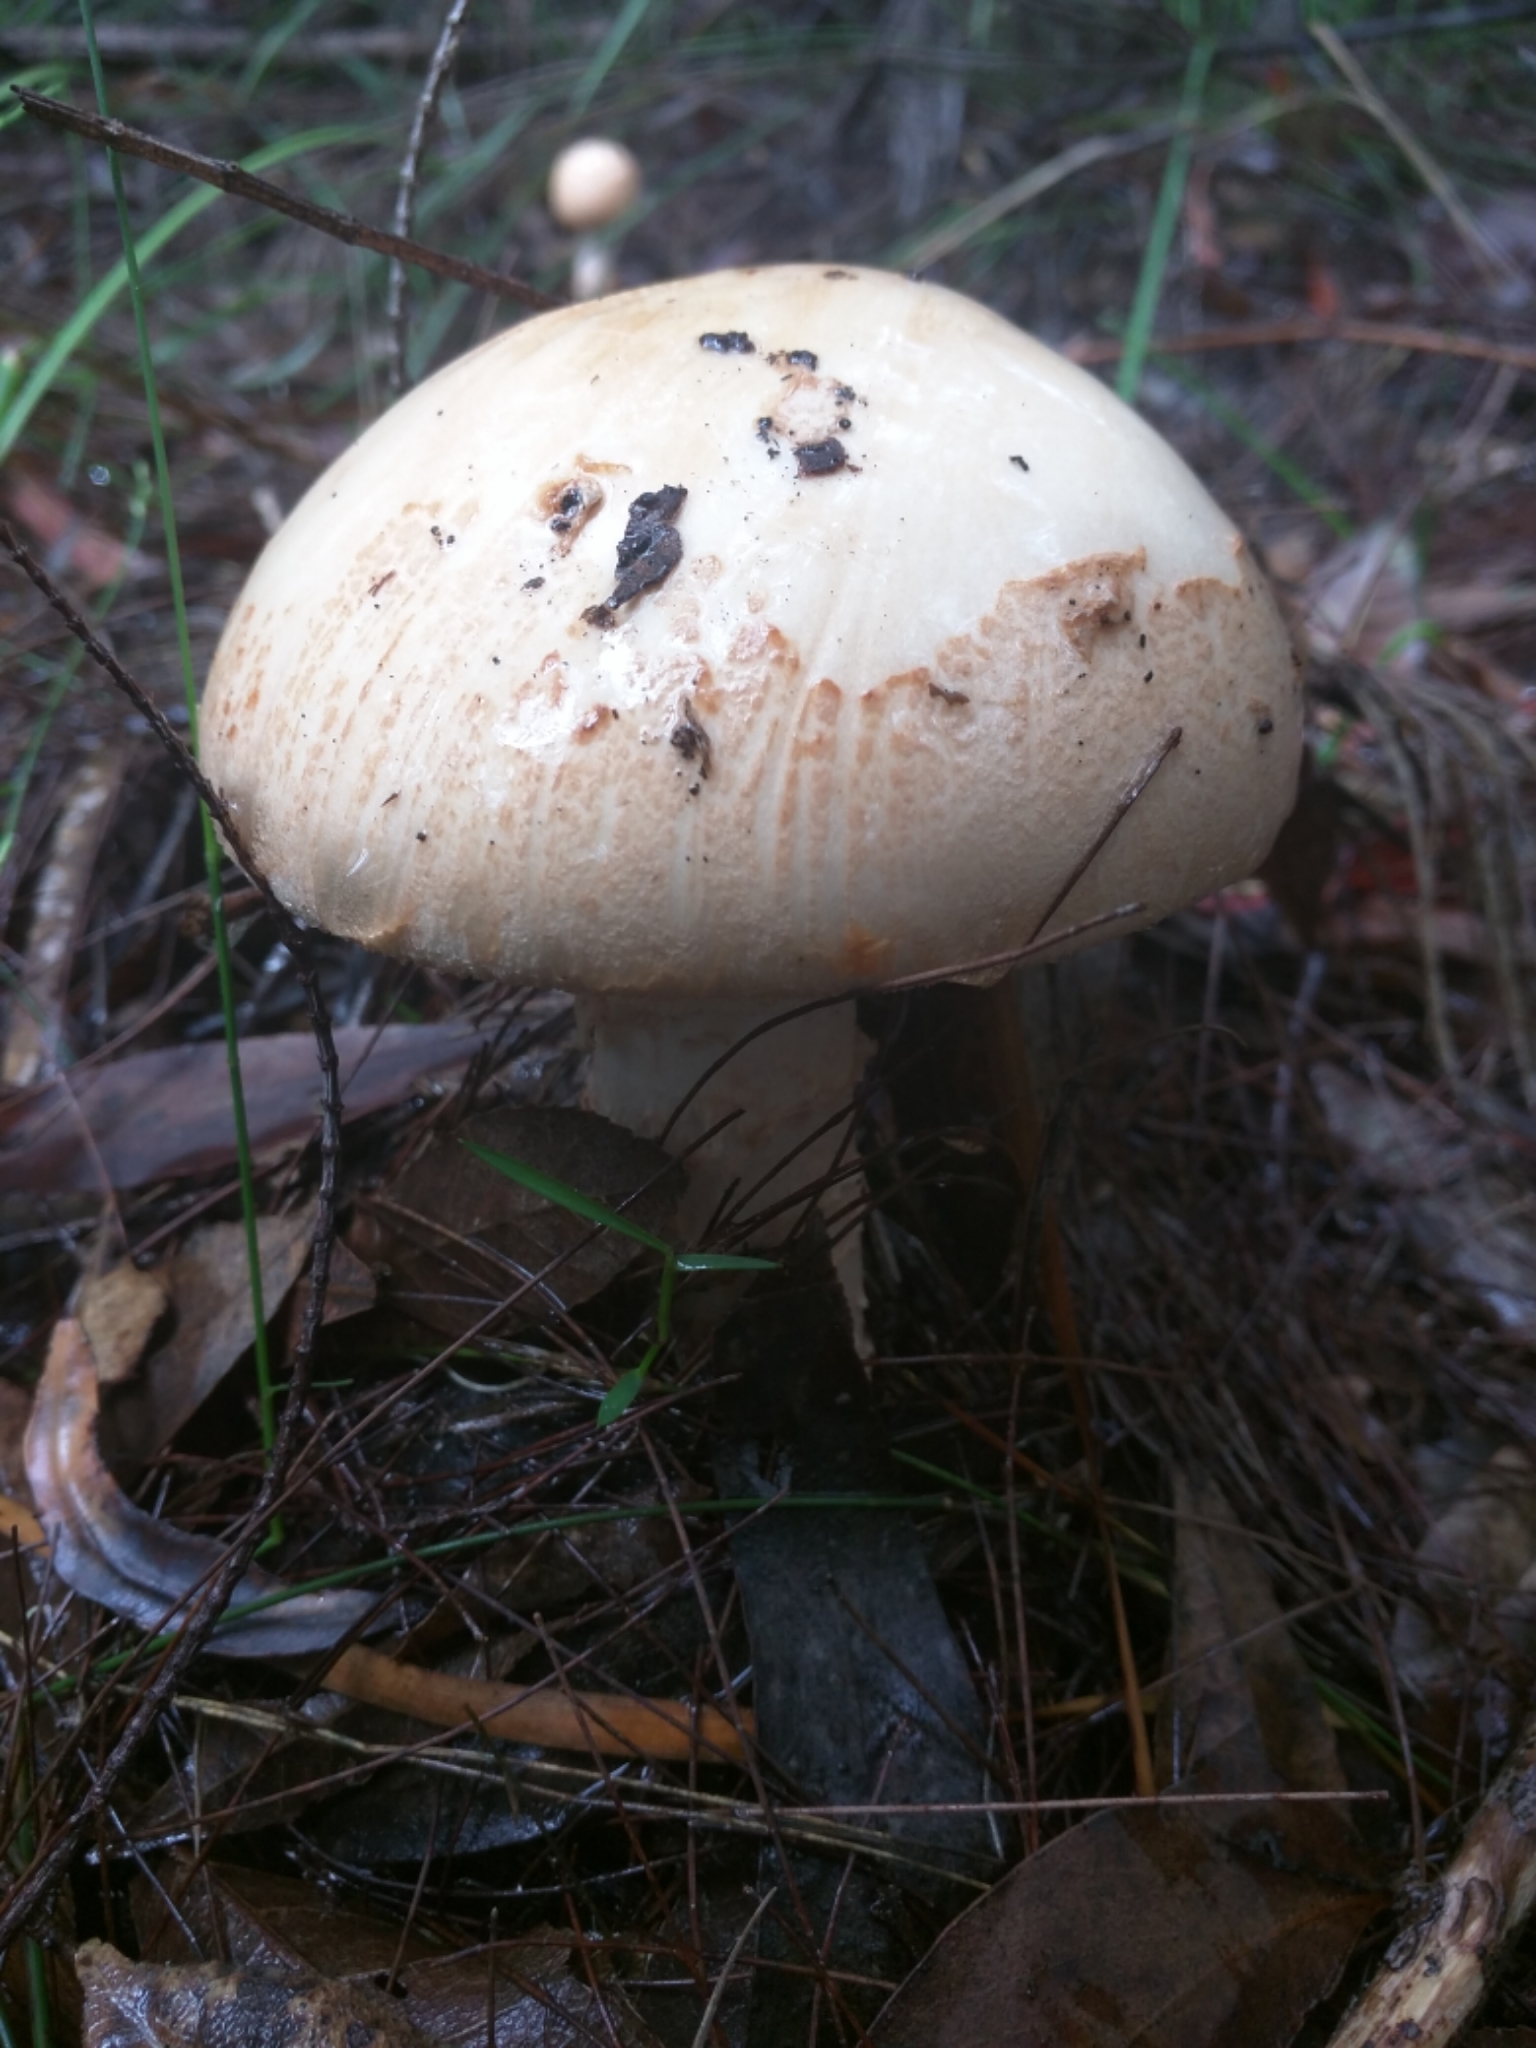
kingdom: Fungi
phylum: Basidiomycota
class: Agaricomycetes
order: Agaricales
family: Amanitaceae
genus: Amanita
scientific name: Amanita ochrophylla
